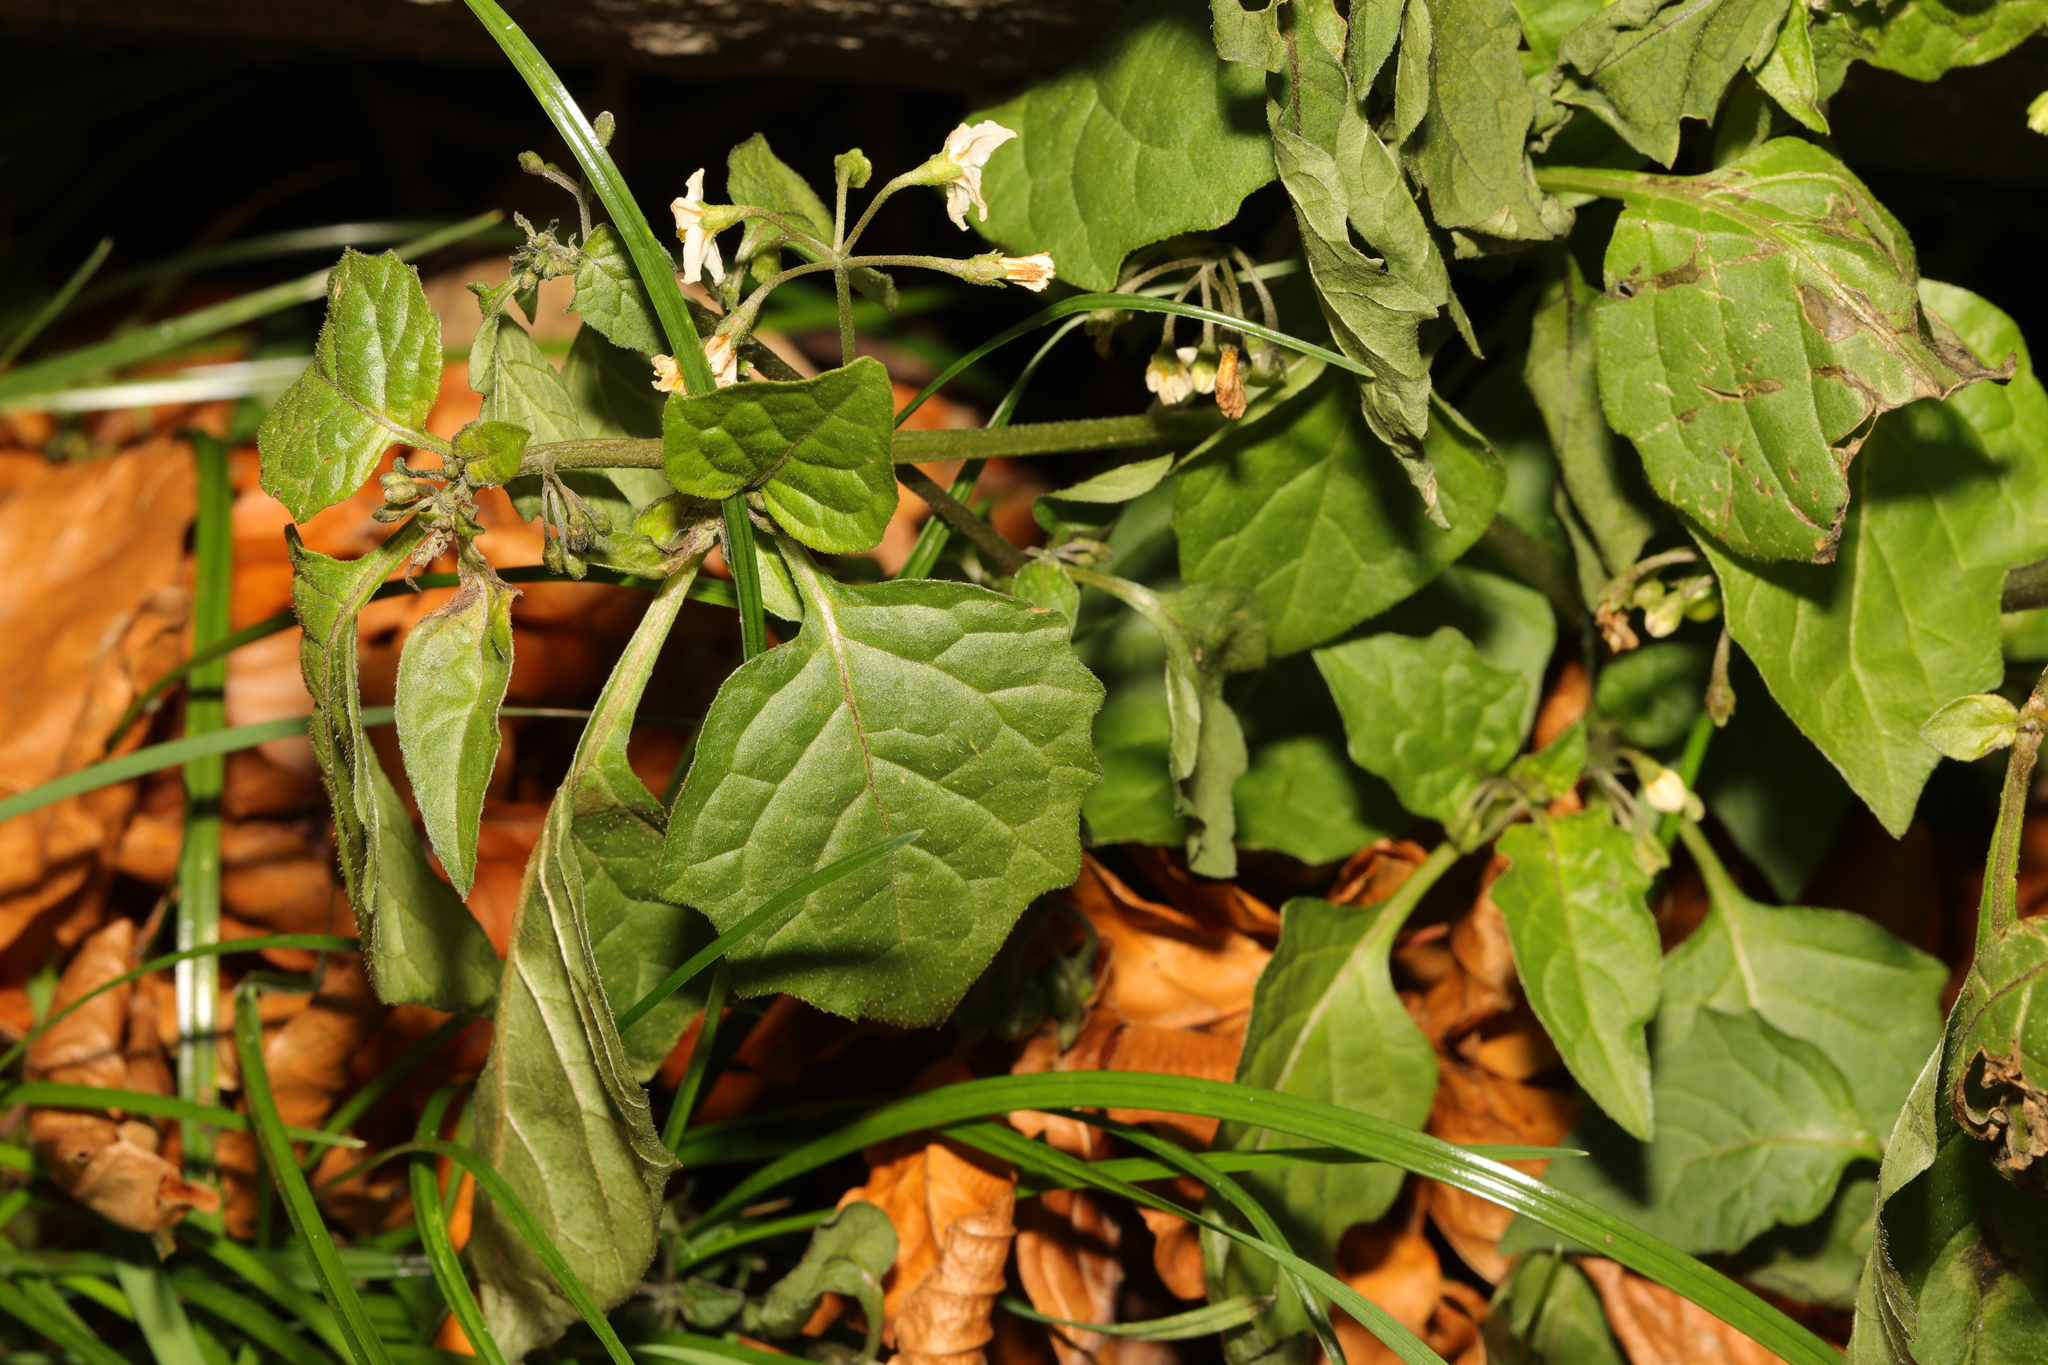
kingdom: Plantae
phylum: Tracheophyta
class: Magnoliopsida
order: Solanales
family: Solanaceae
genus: Solanum
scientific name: Solanum nigrum
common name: Black nightshade
